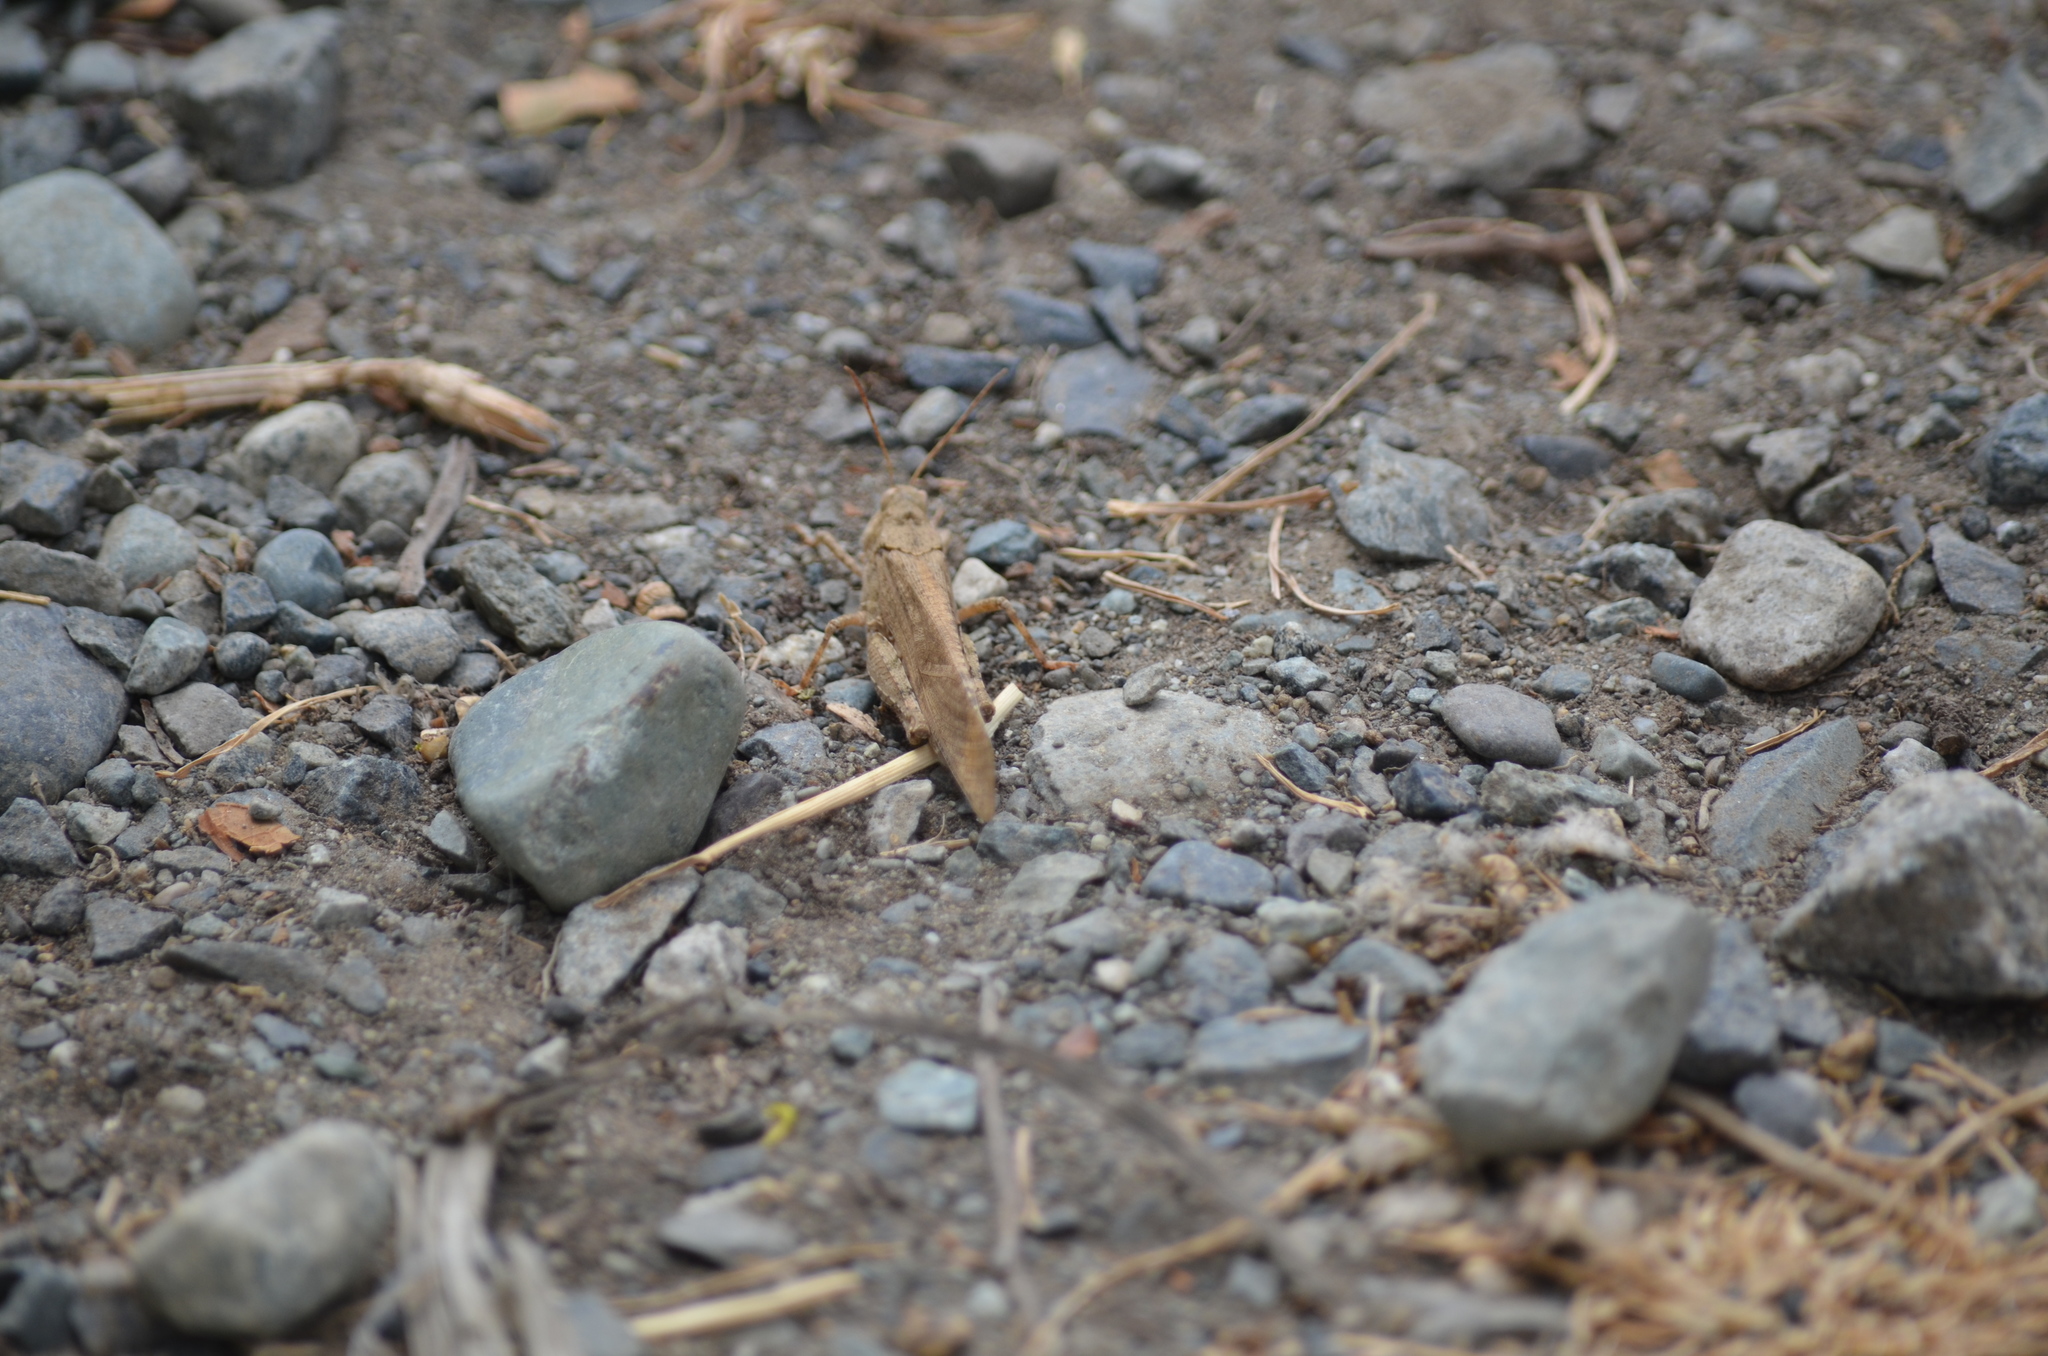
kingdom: Animalia
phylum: Arthropoda
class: Insecta
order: Orthoptera
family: Acrididae
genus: Dissosteira
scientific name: Dissosteira carolina
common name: Carolina grasshopper
